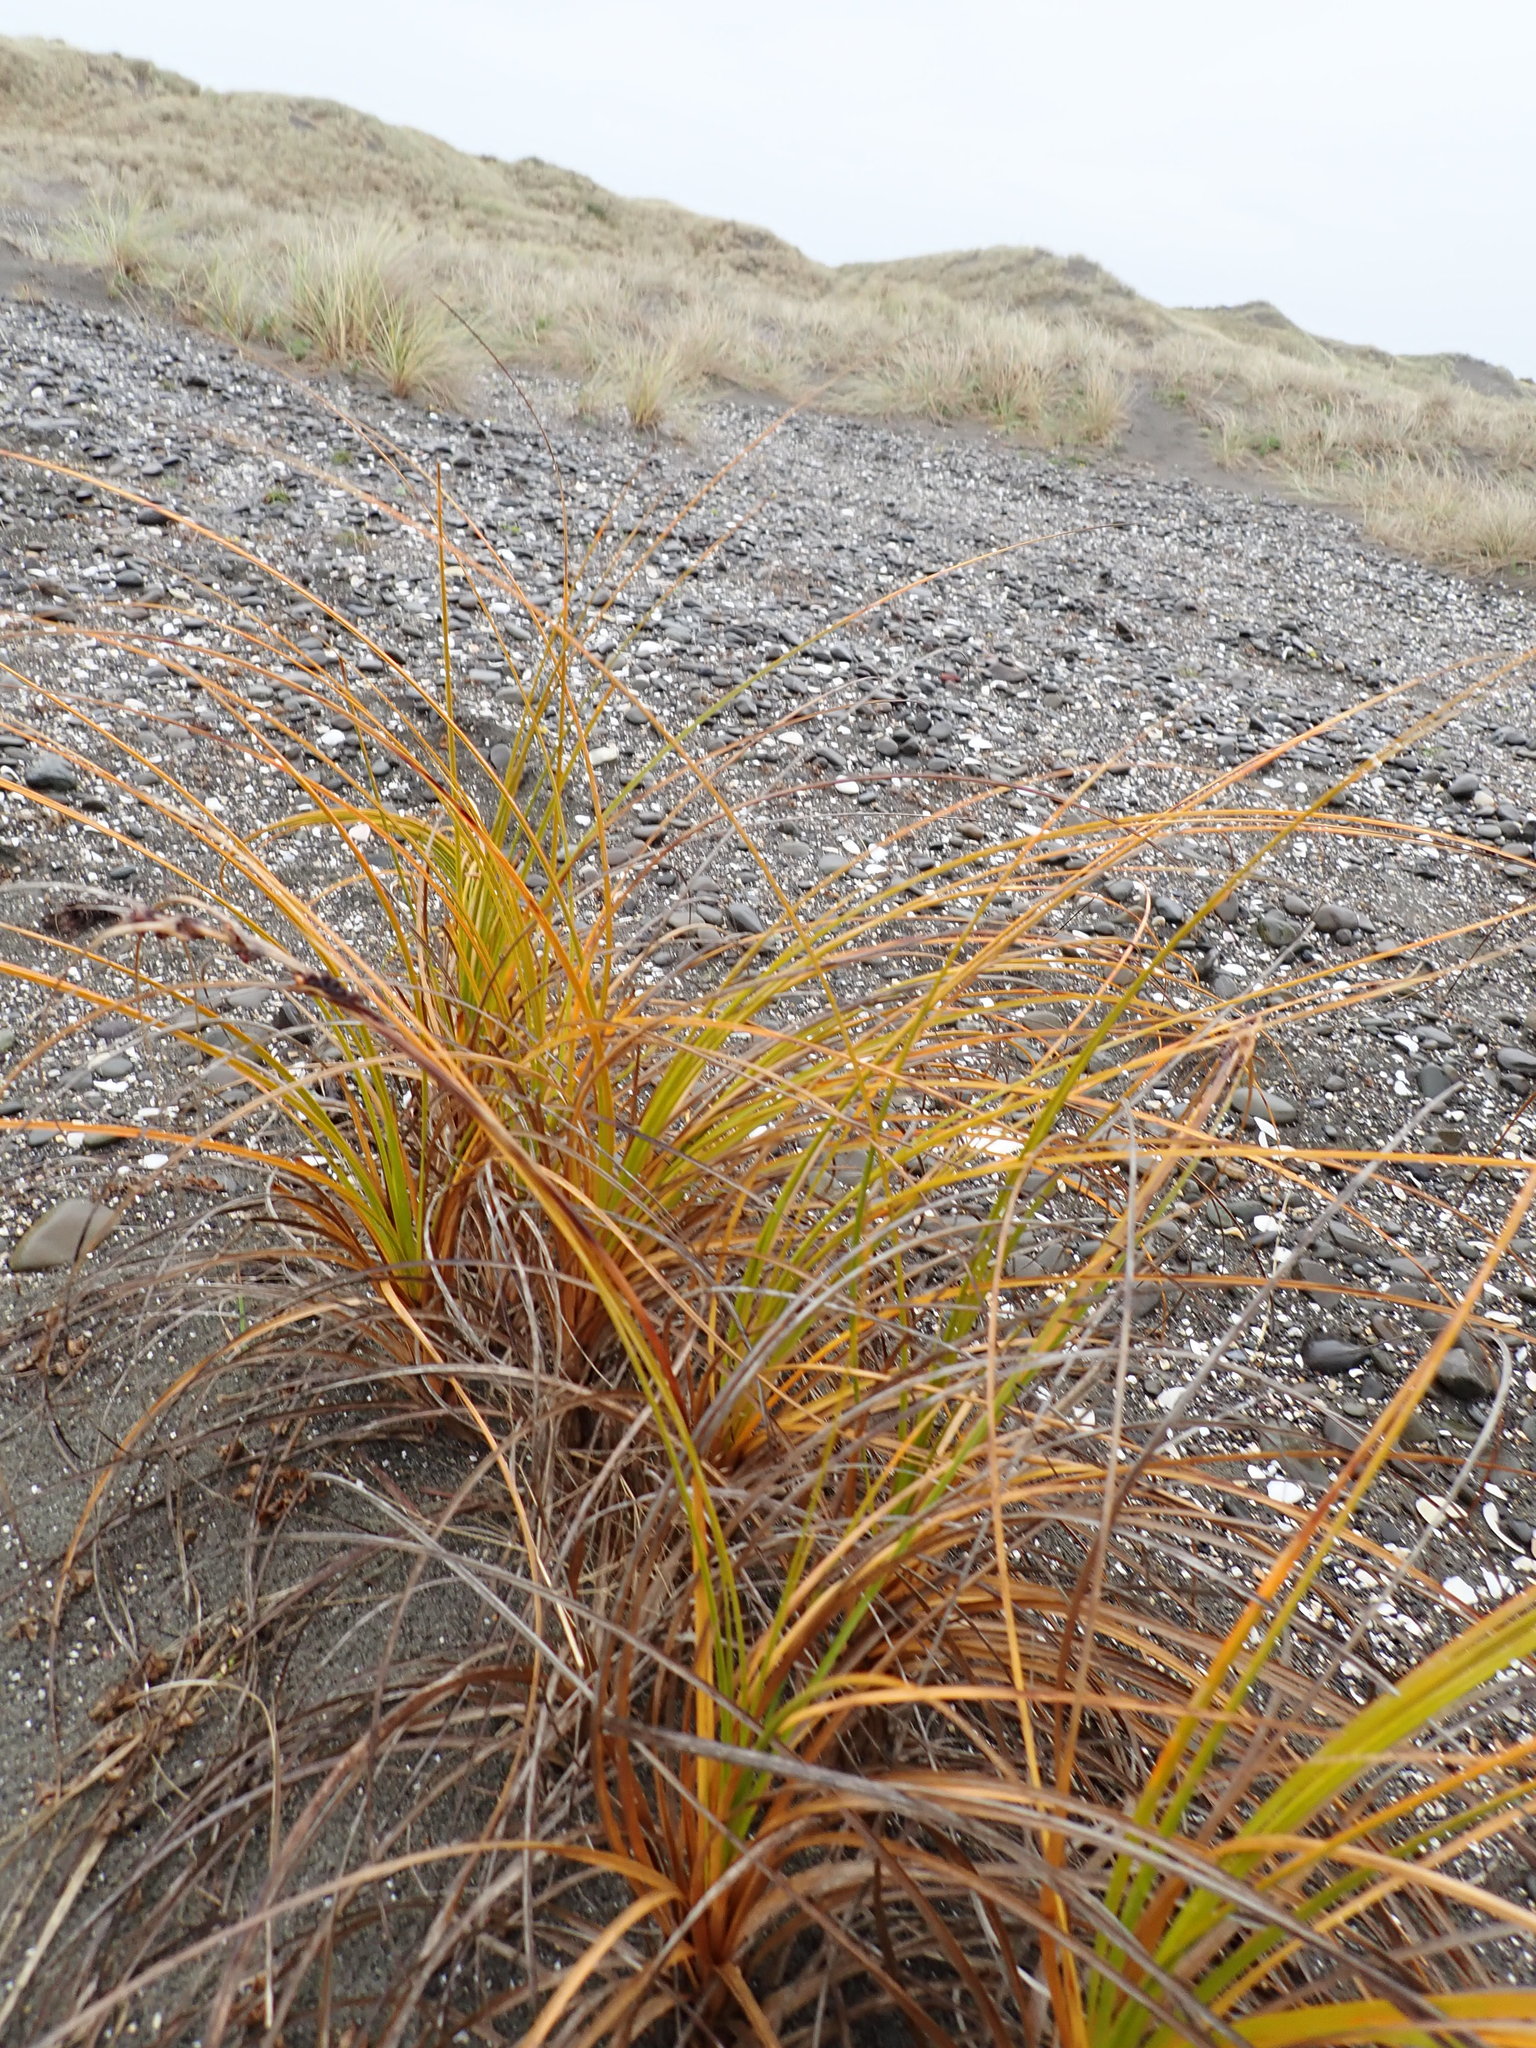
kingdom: Plantae
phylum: Tracheophyta
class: Liliopsida
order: Poales
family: Cyperaceae
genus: Ficinia
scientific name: Ficinia spiralis
